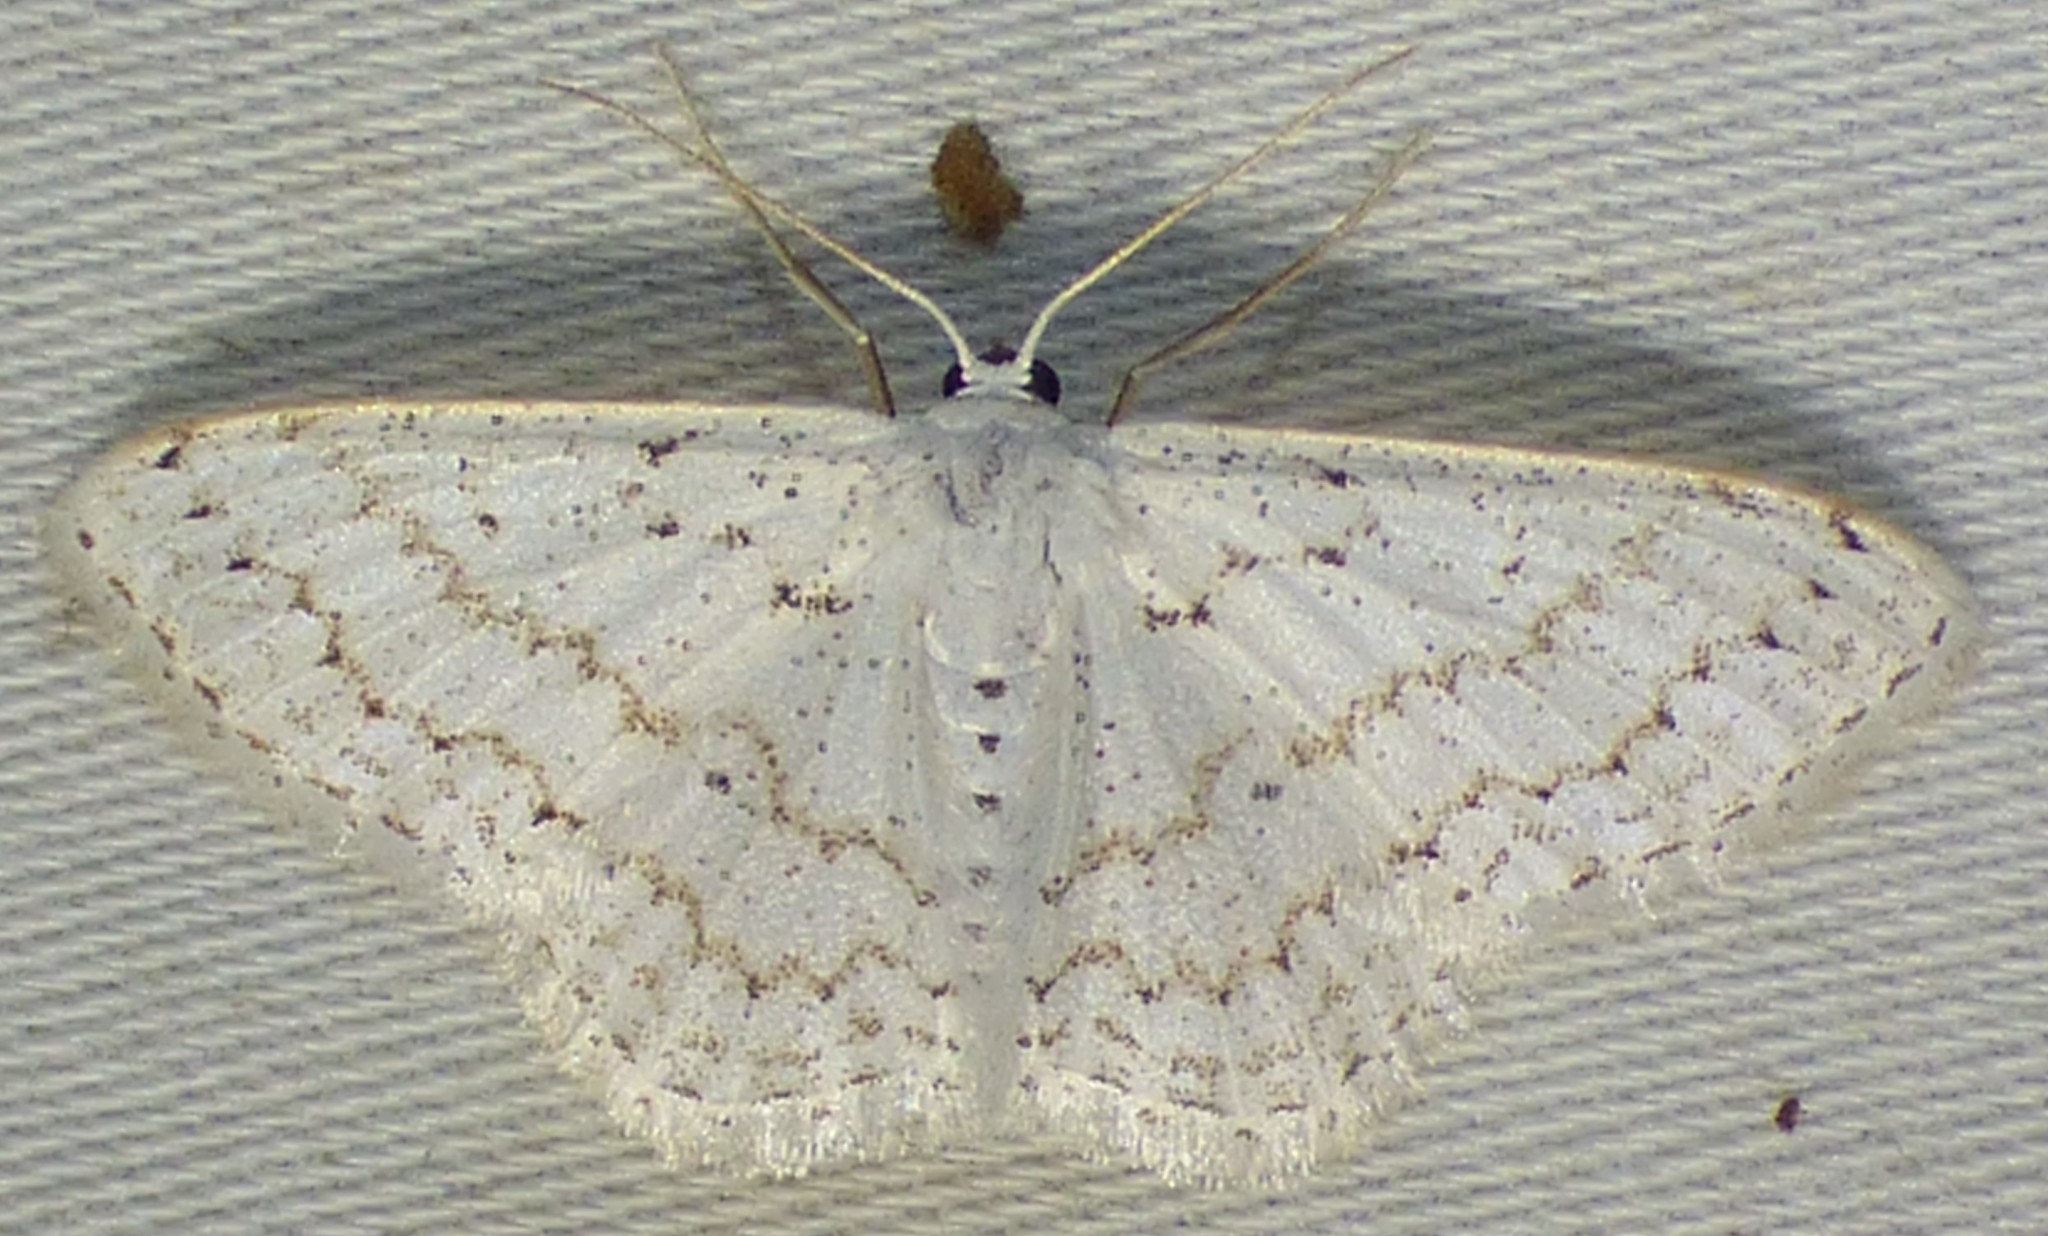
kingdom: Animalia
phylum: Arthropoda
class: Insecta
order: Lepidoptera
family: Geometridae
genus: Idaea
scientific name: Idaea tacturata
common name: Dot-lined wave
